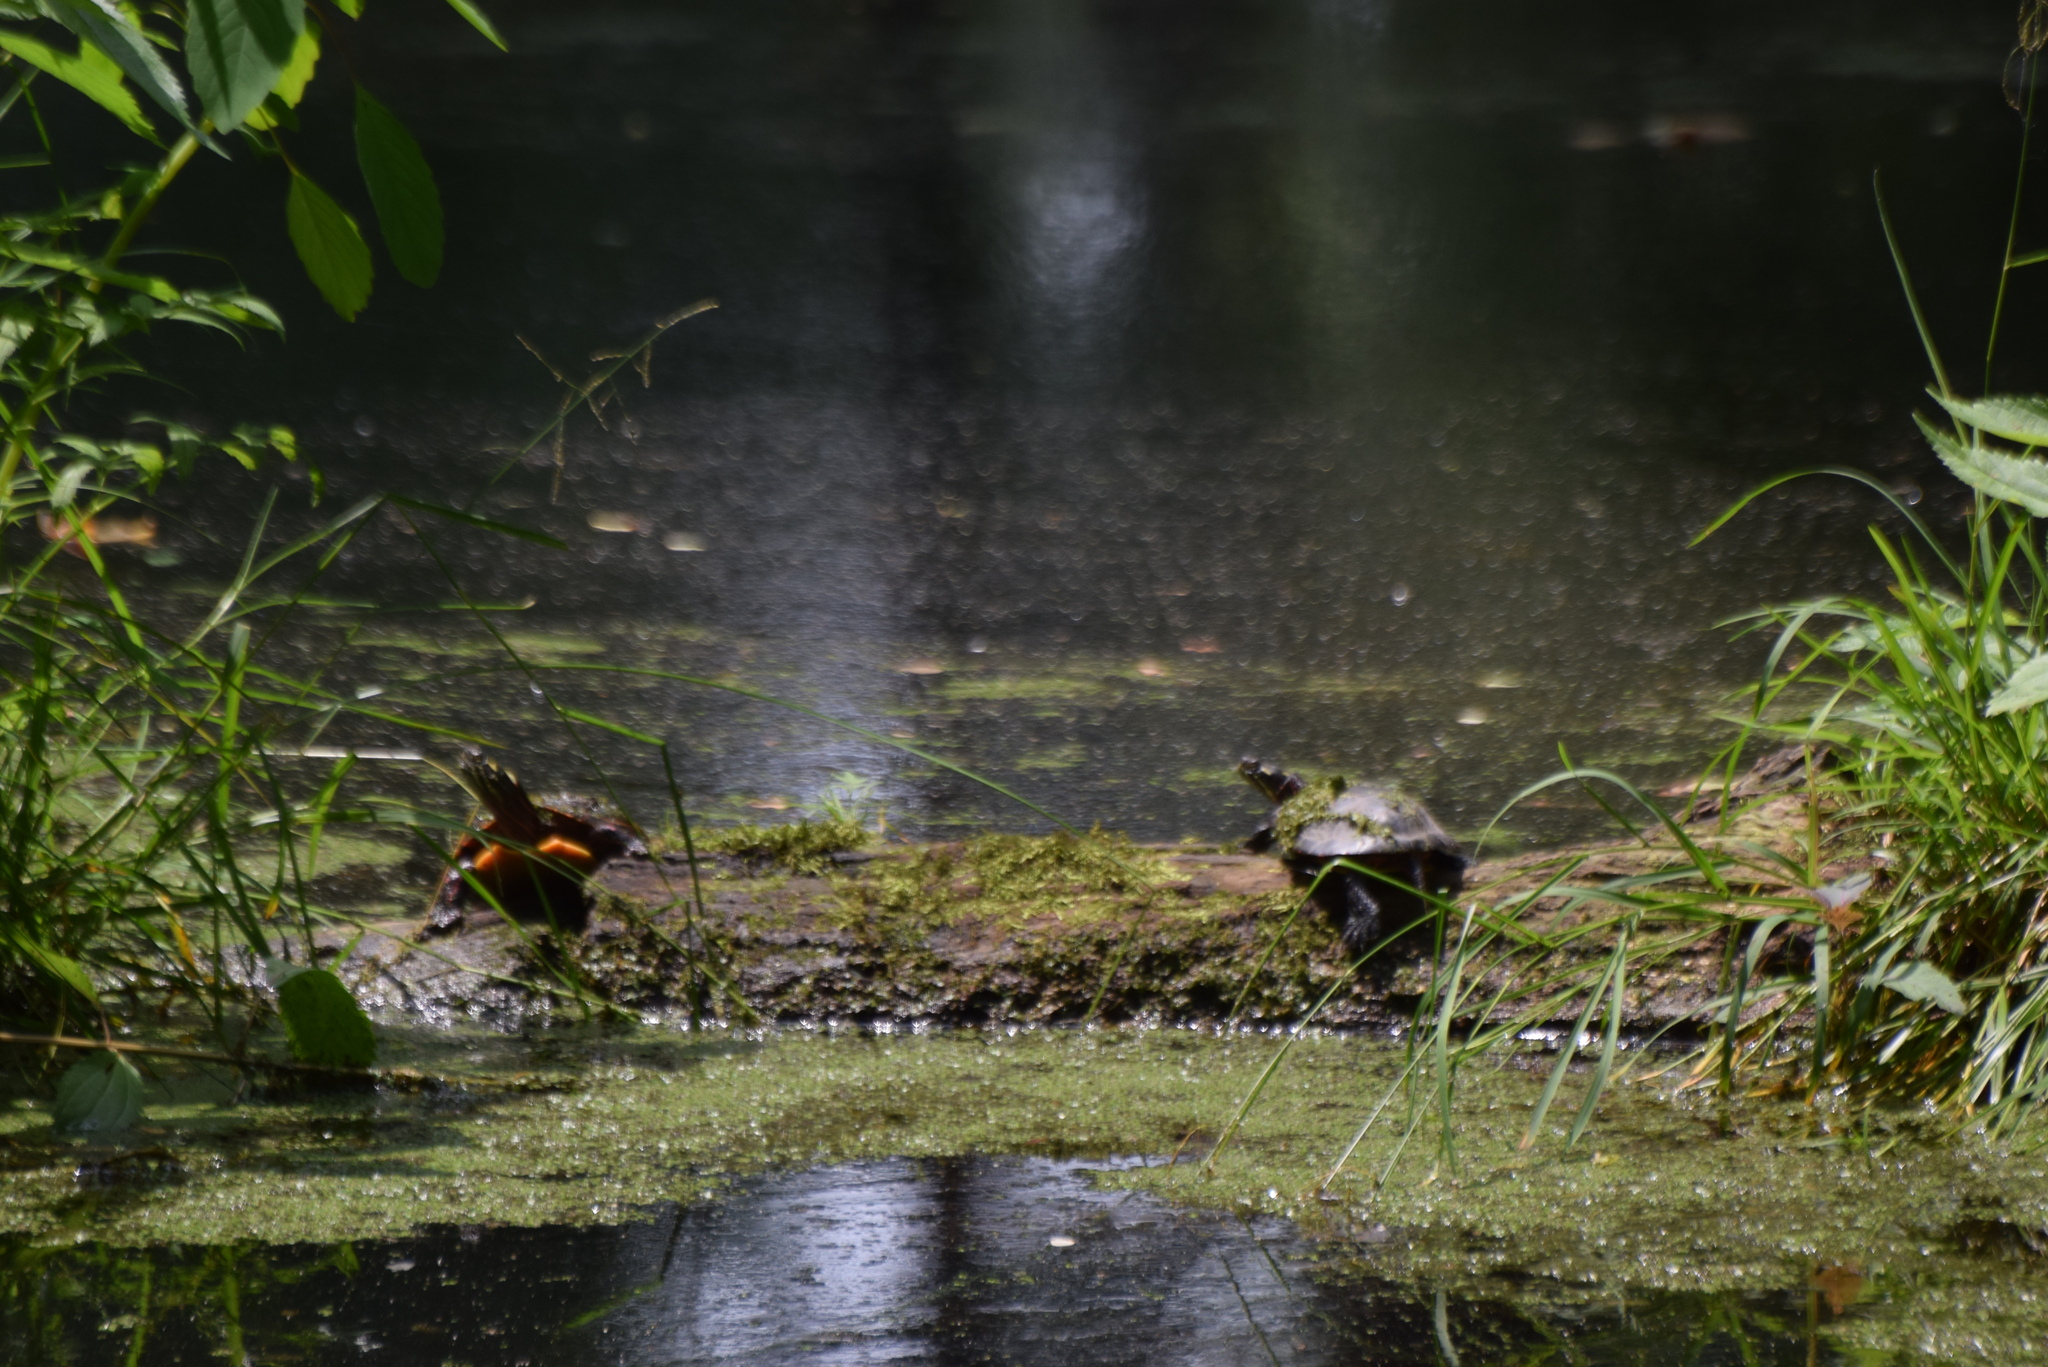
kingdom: Animalia
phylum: Chordata
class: Testudines
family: Emydidae
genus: Chrysemys
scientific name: Chrysemys picta
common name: Painted turtle
